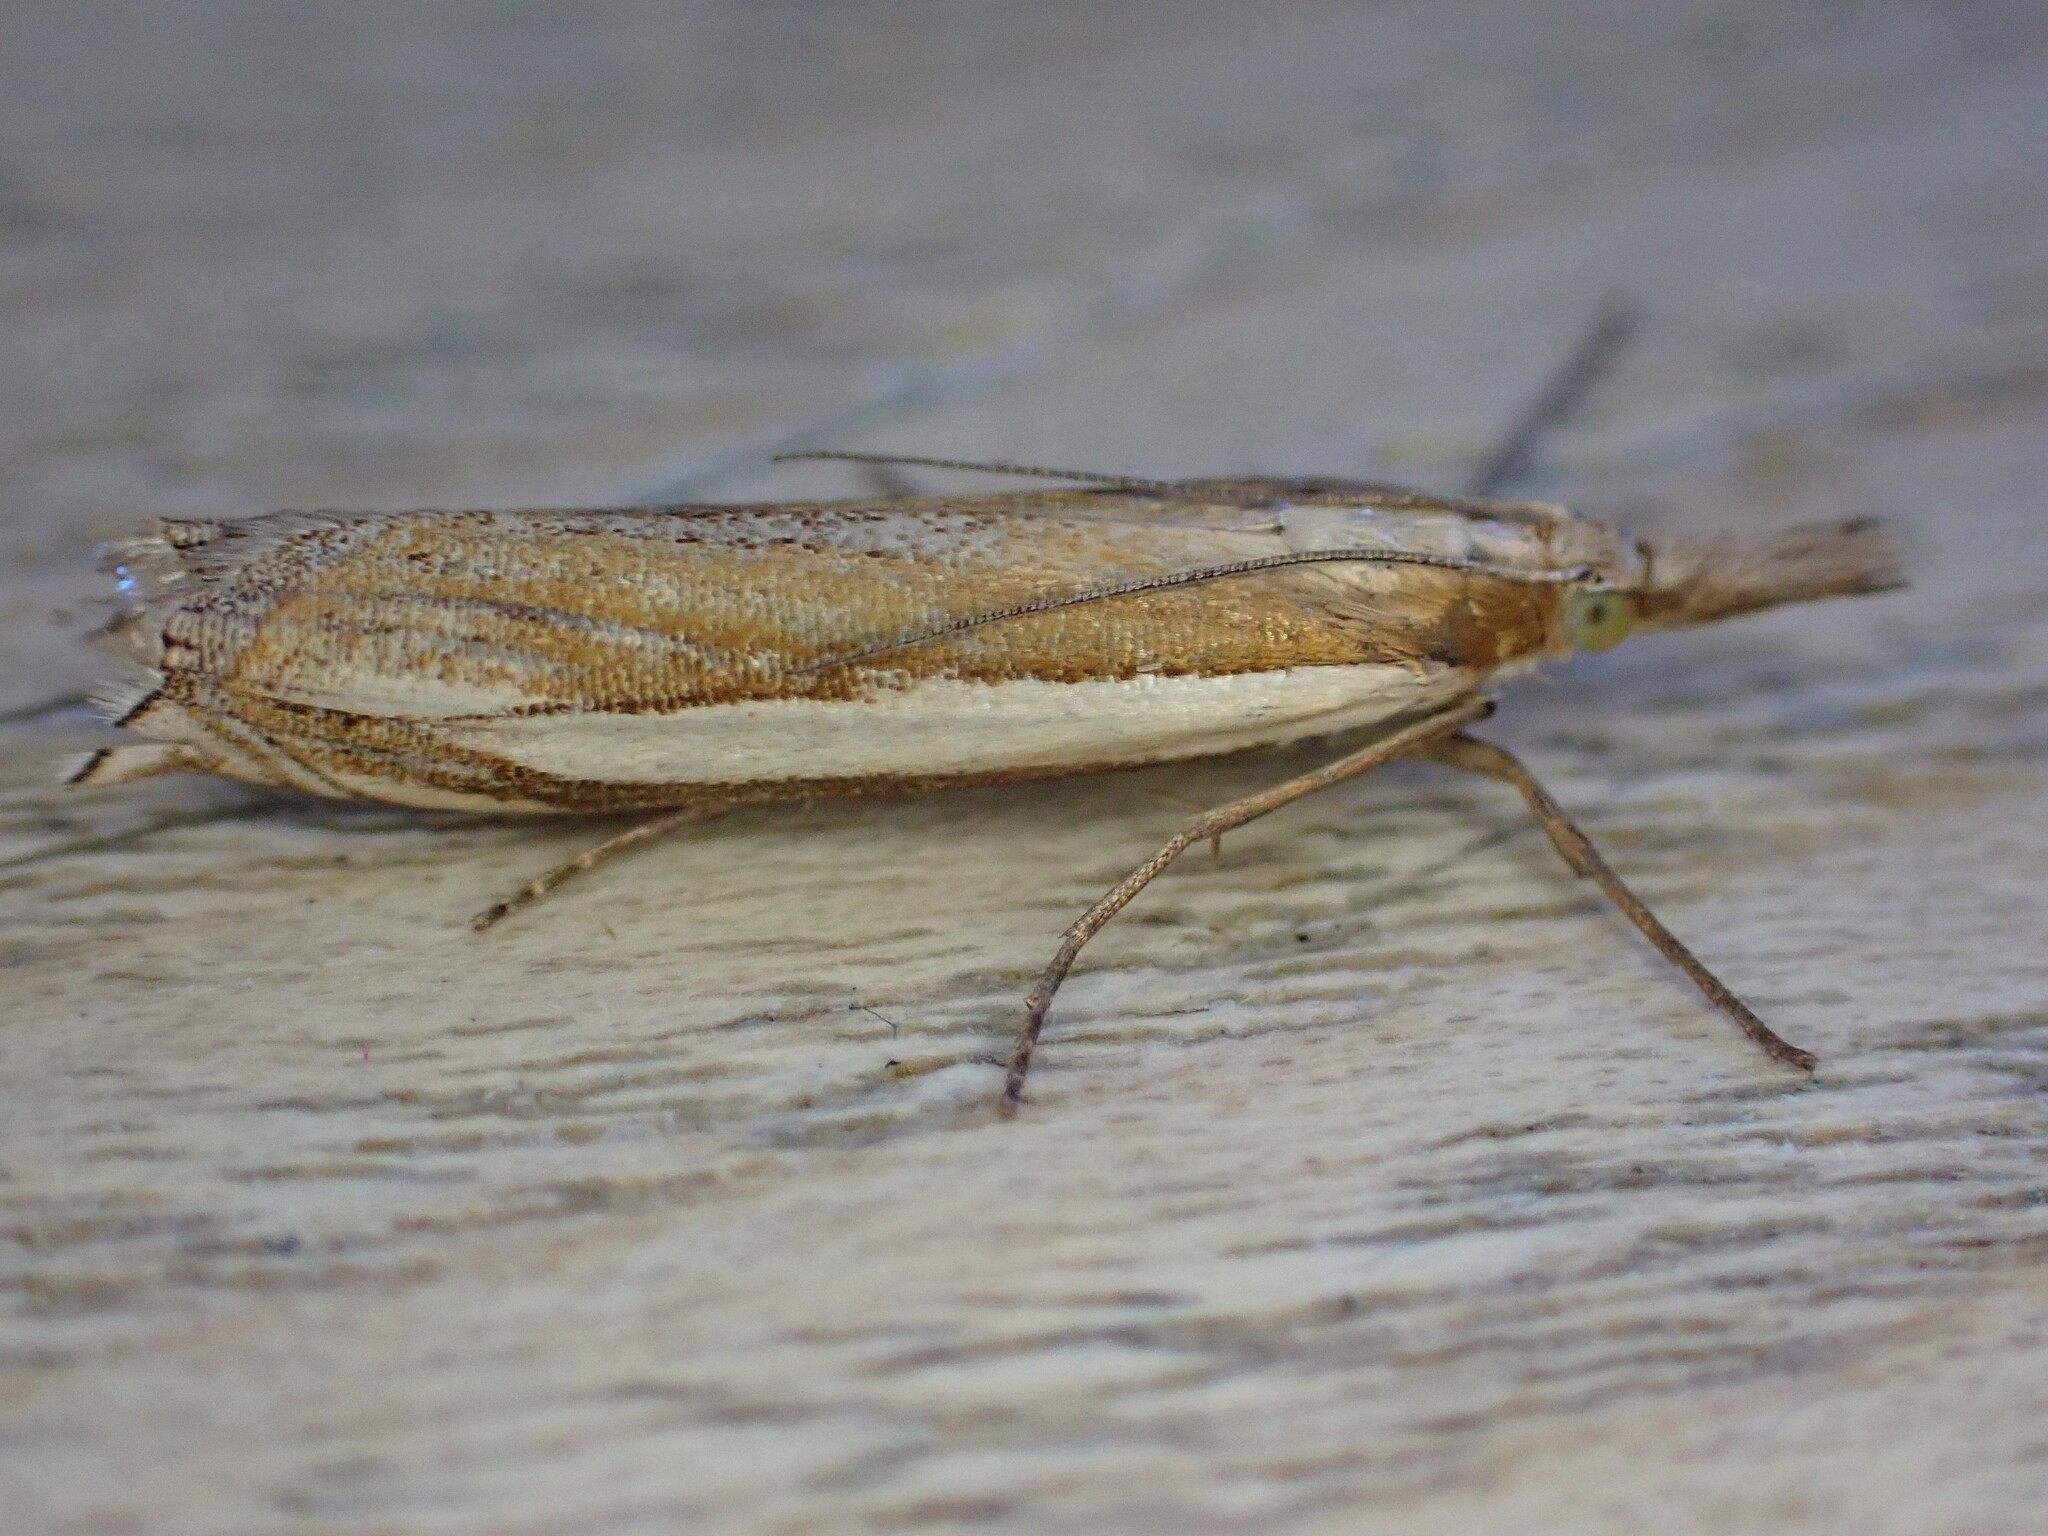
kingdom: Animalia
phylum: Arthropoda
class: Insecta
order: Lepidoptera
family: Crambidae
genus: Crambus
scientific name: Crambus pascuella
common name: Inlaid grass-veneer
